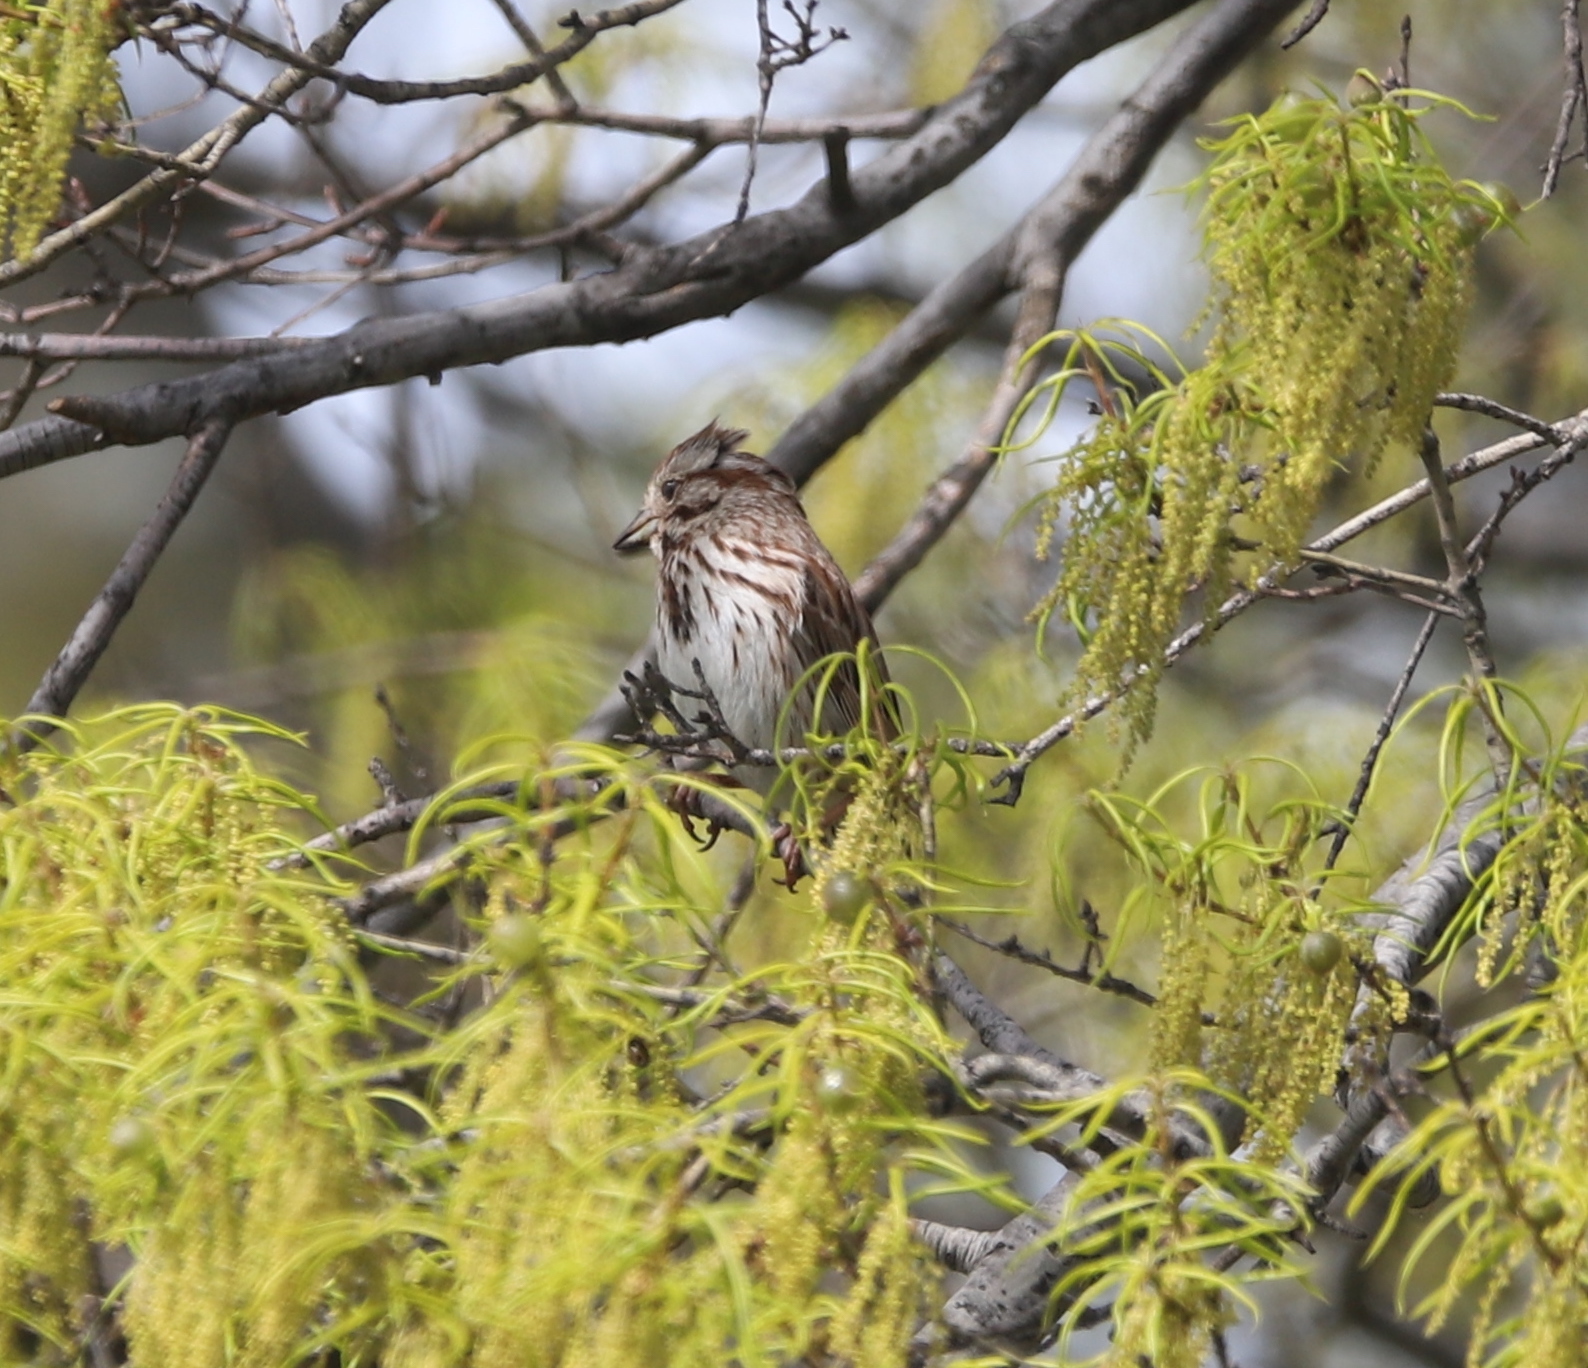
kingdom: Animalia
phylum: Chordata
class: Aves
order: Passeriformes
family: Passerellidae
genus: Melospiza
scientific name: Melospiza melodia
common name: Song sparrow
